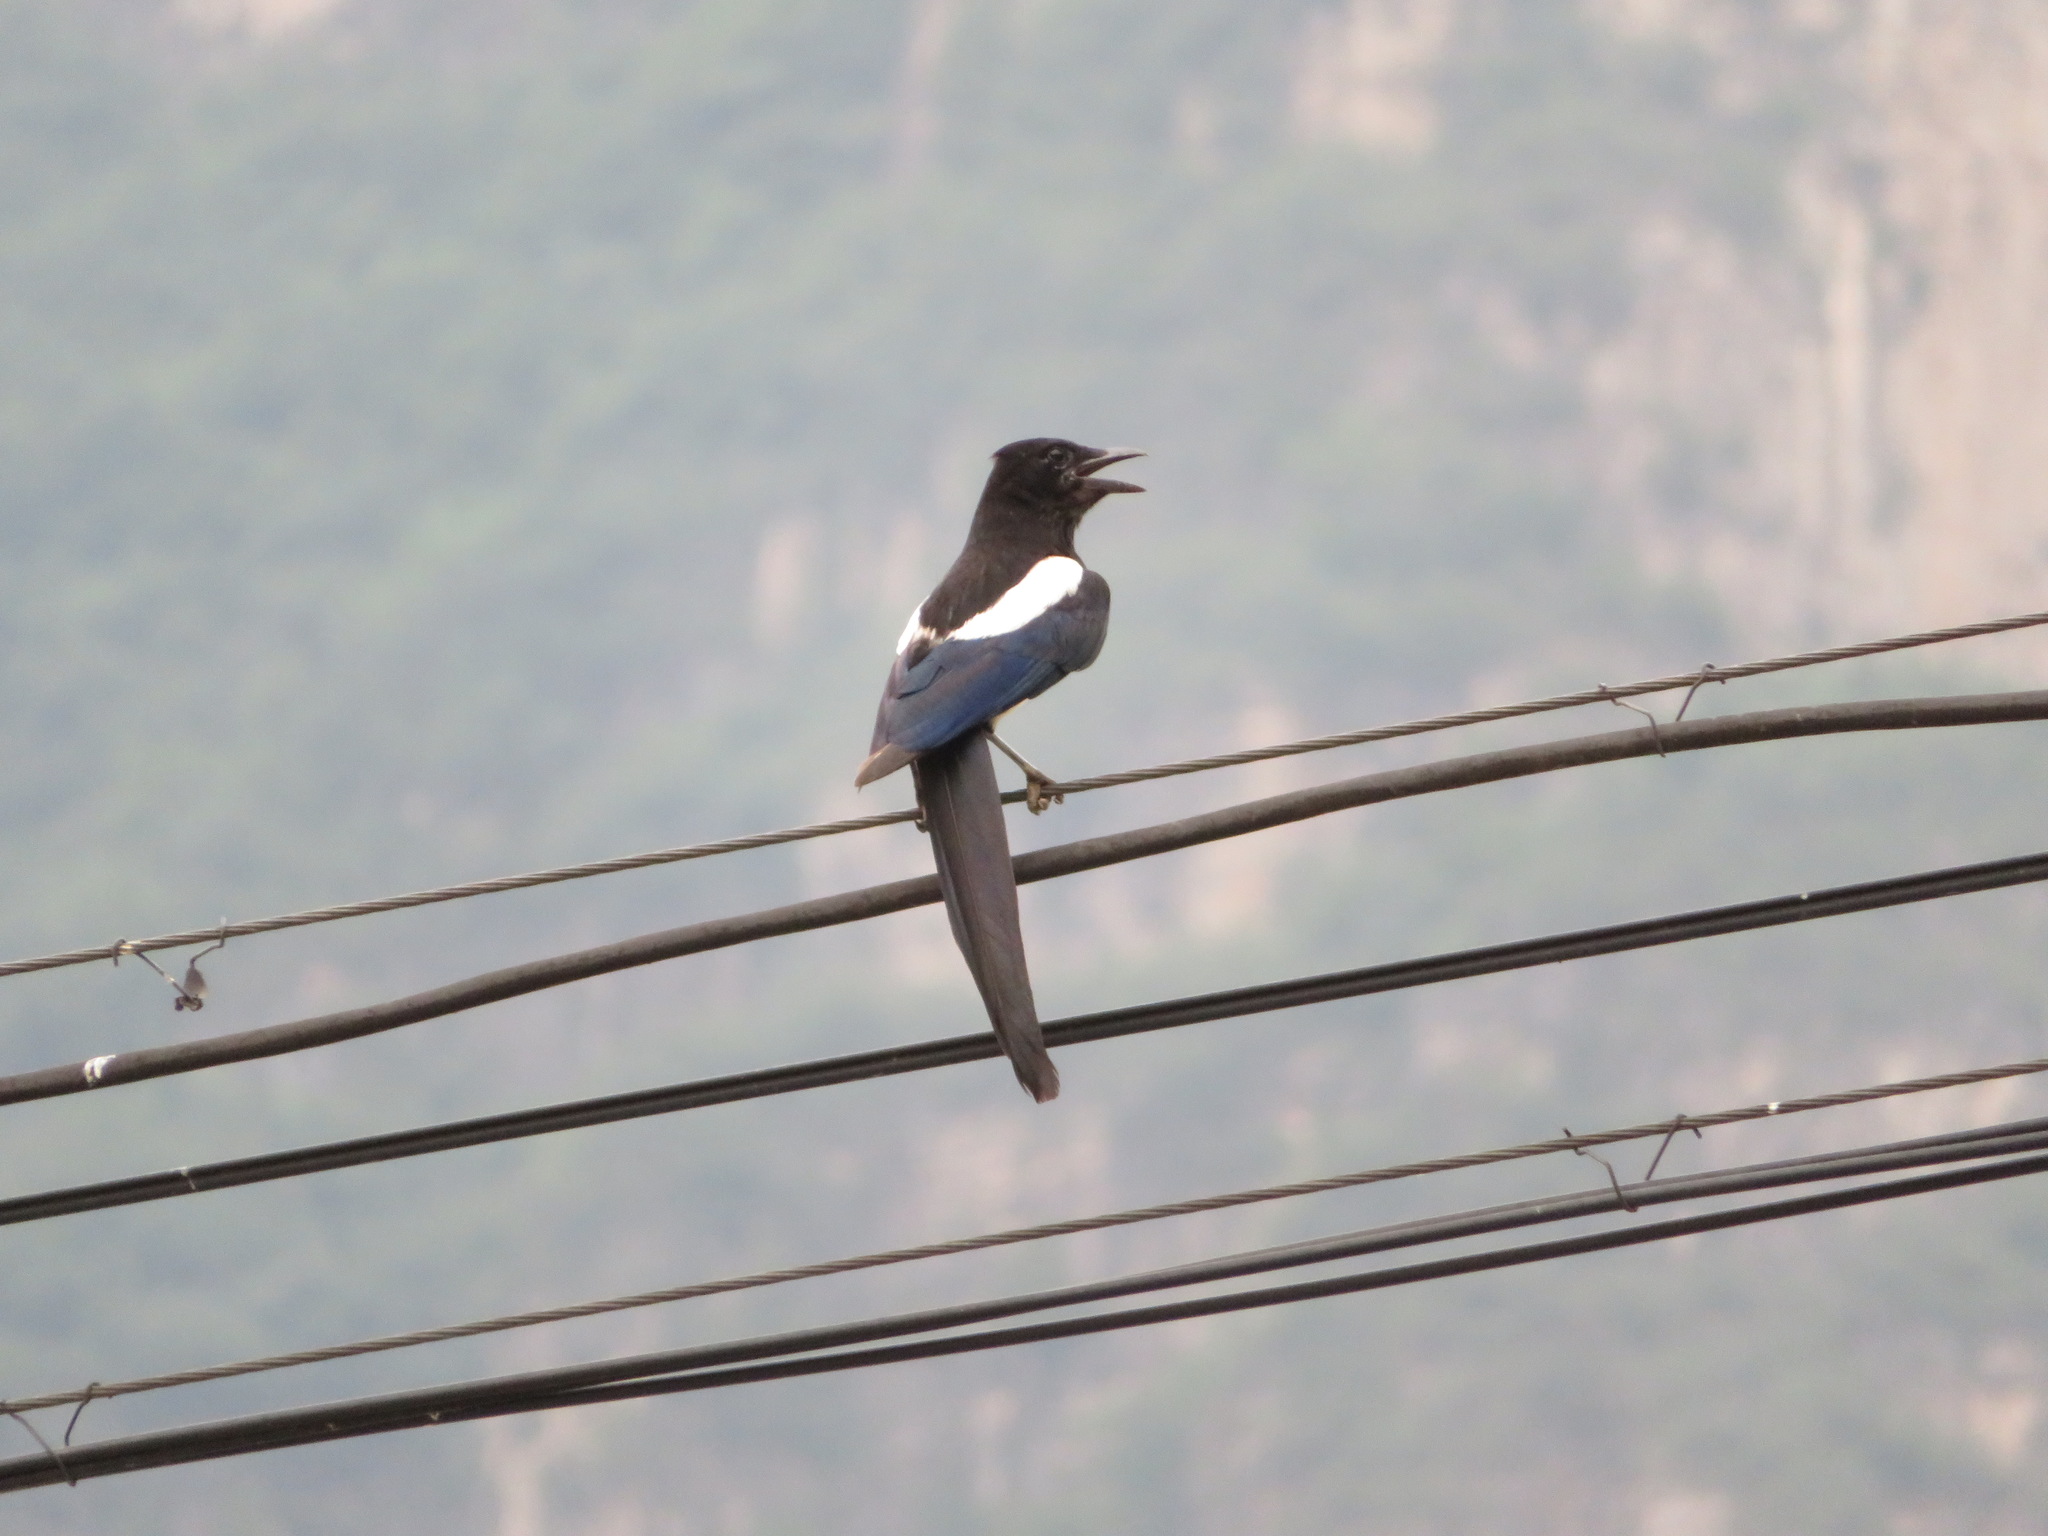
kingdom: Animalia
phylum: Chordata
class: Aves
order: Passeriformes
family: Corvidae
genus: Pica
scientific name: Pica serica
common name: Oriental magpie
